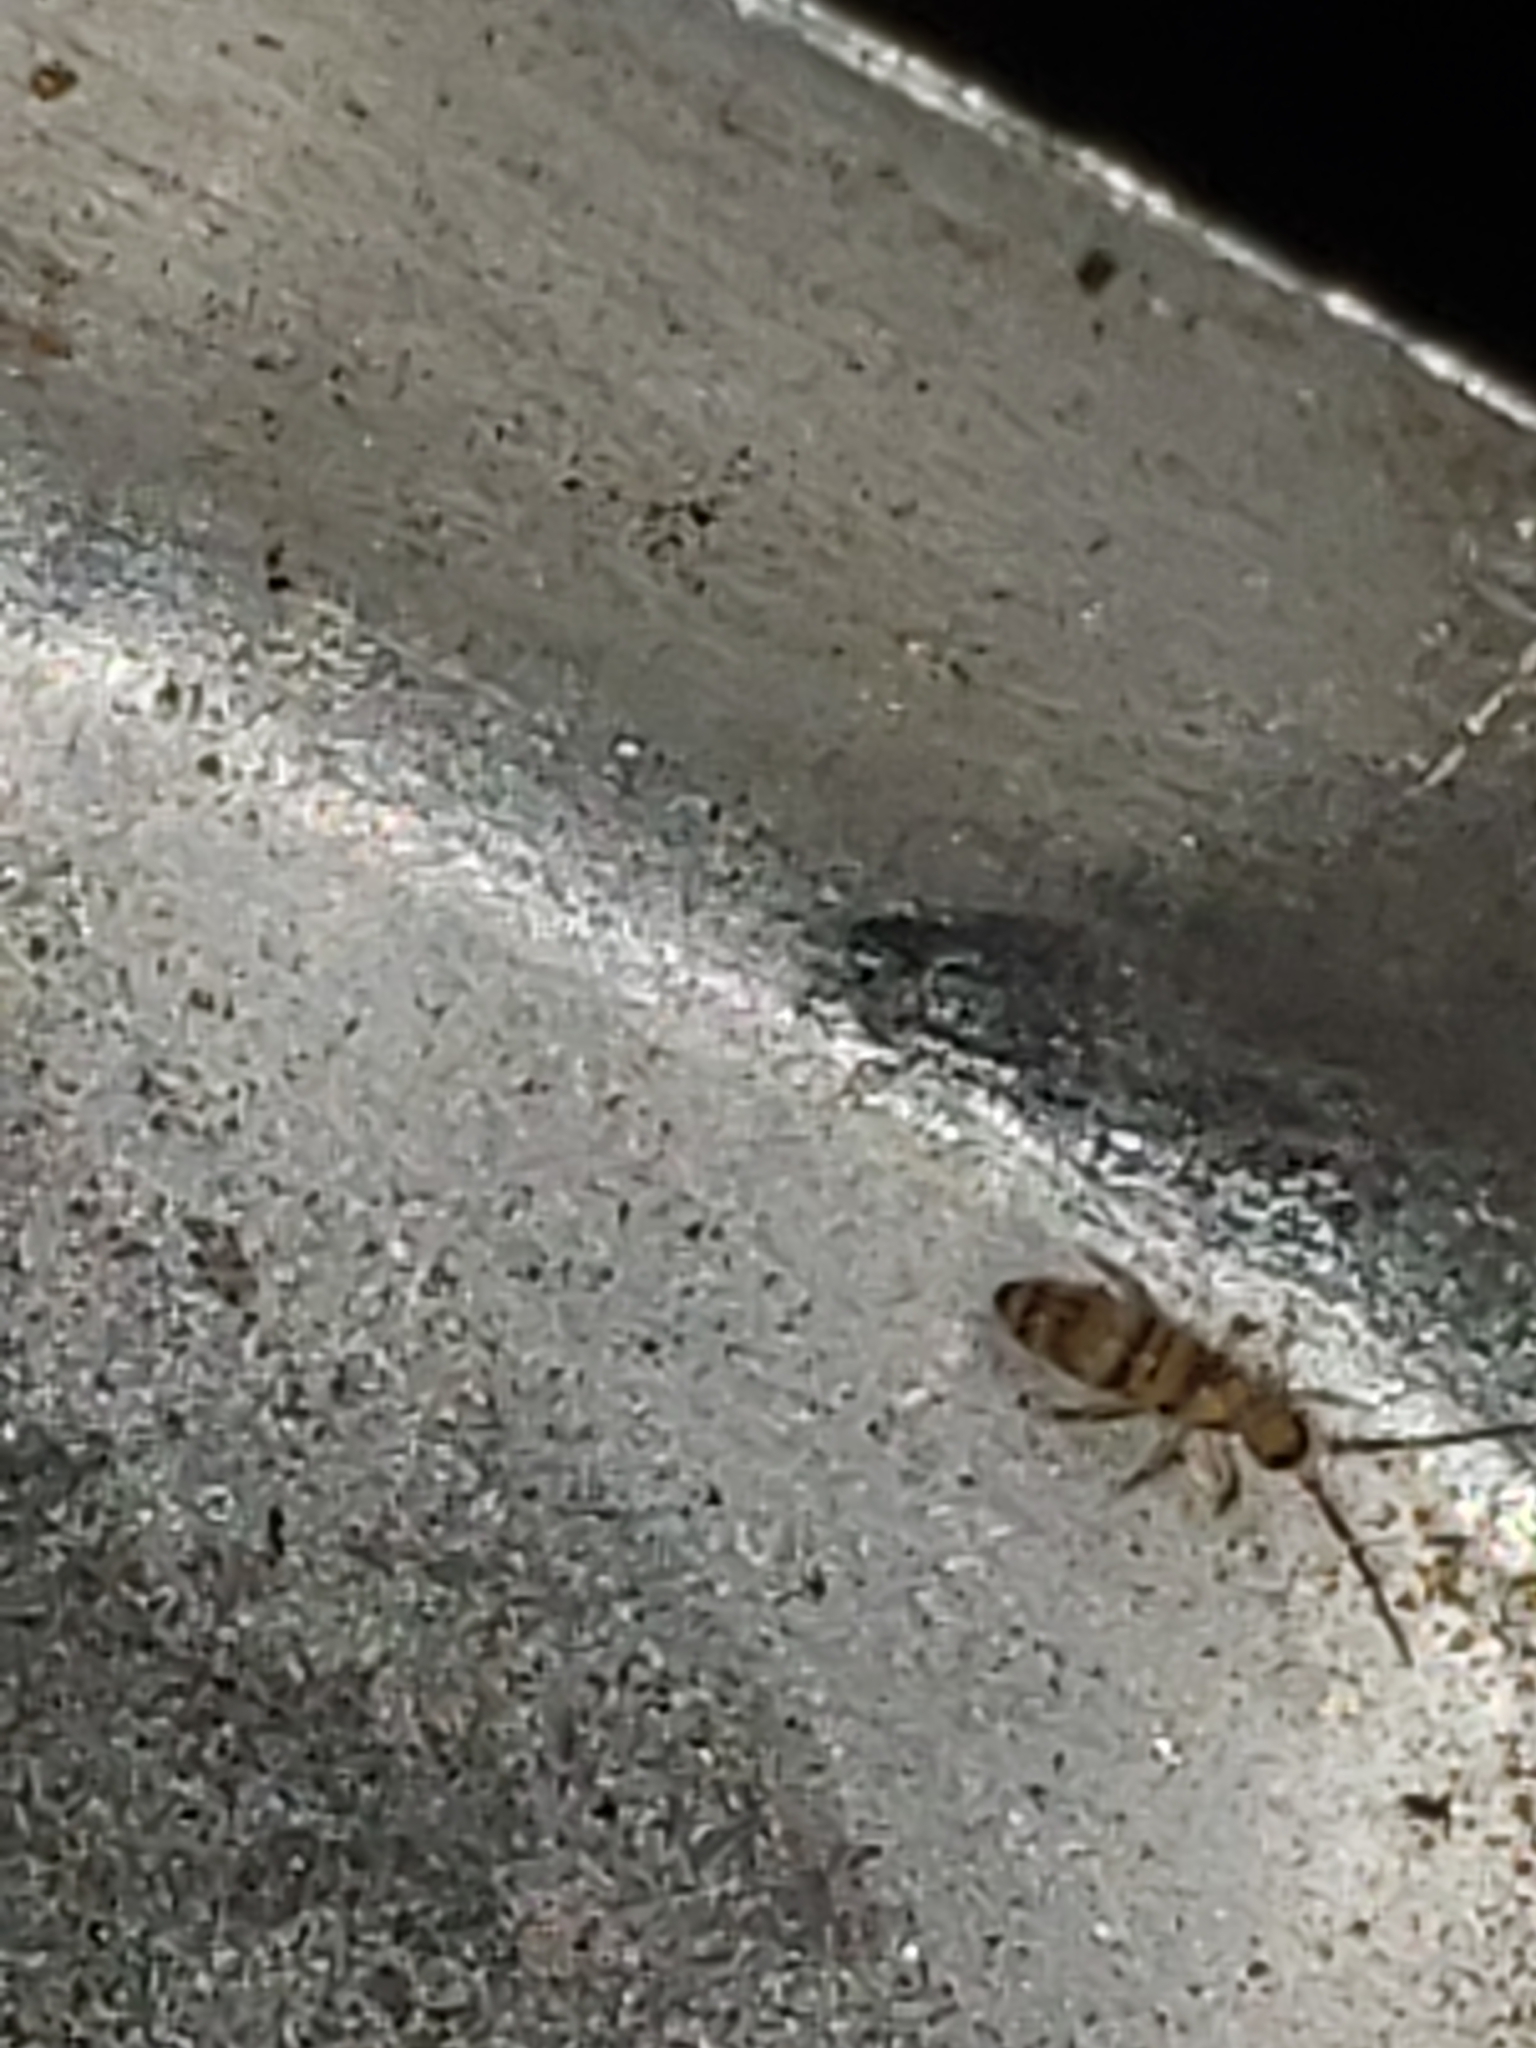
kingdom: Animalia
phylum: Arthropoda
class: Collembola
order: Entomobryomorpha
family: Entomobryidae
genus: Homidia
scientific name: Homidia sauteri
